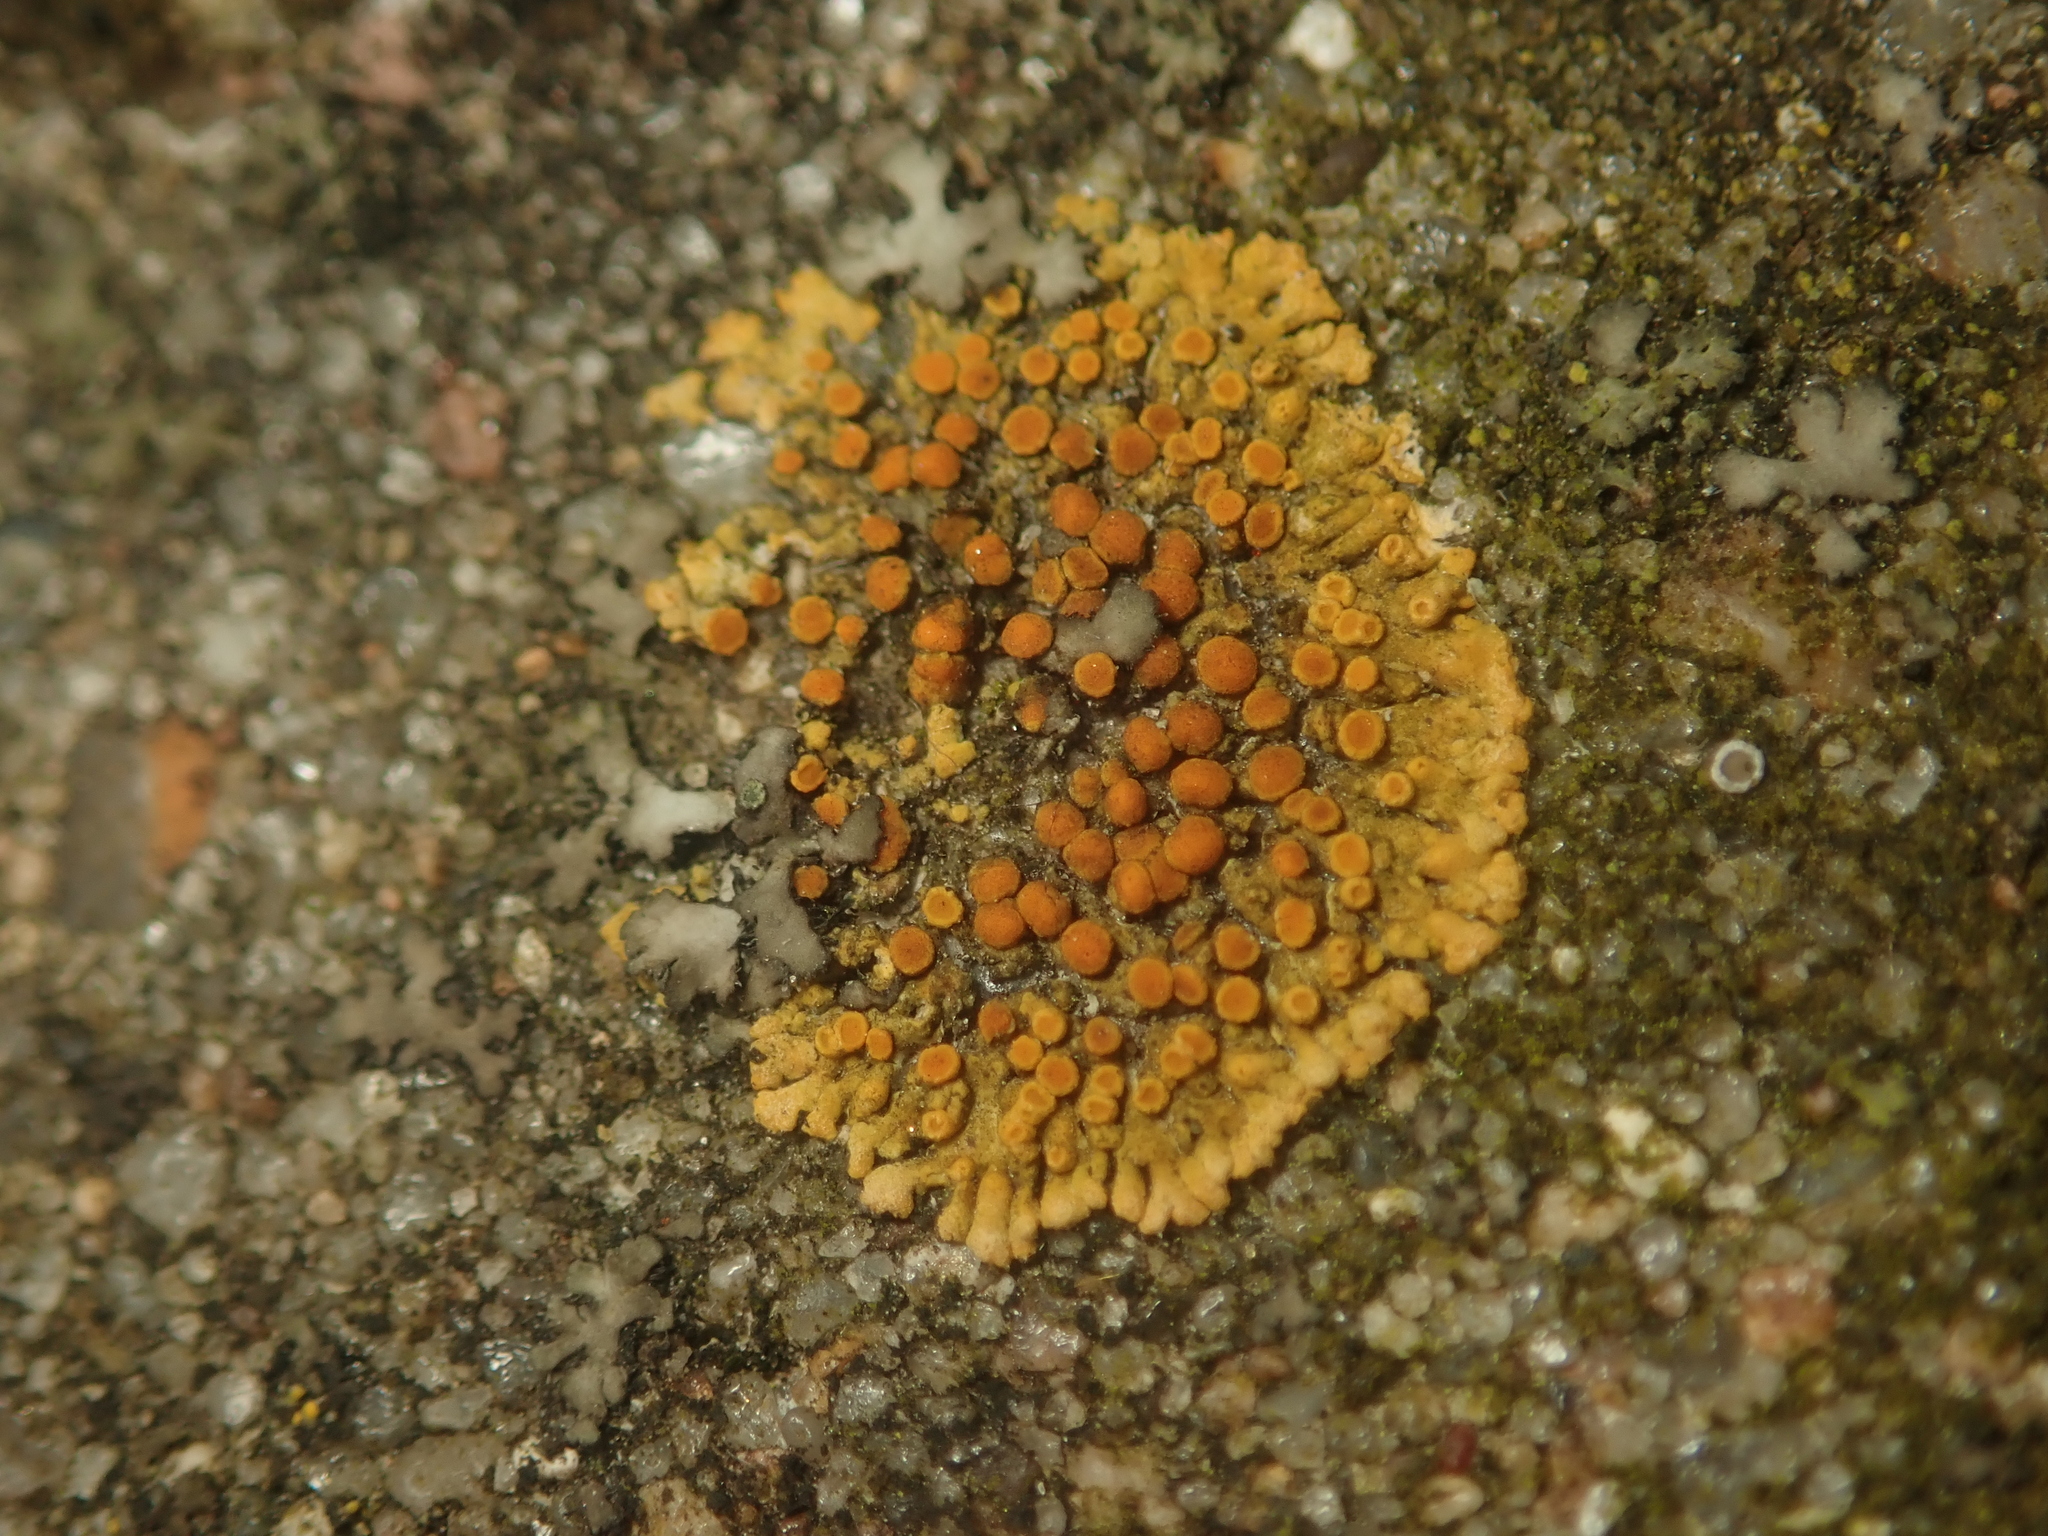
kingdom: Fungi
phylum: Ascomycota
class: Lecanoromycetes
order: Teloschistales
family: Teloschistaceae
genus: Calogaya
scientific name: Calogaya saxicola
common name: Rock jewel lichen
